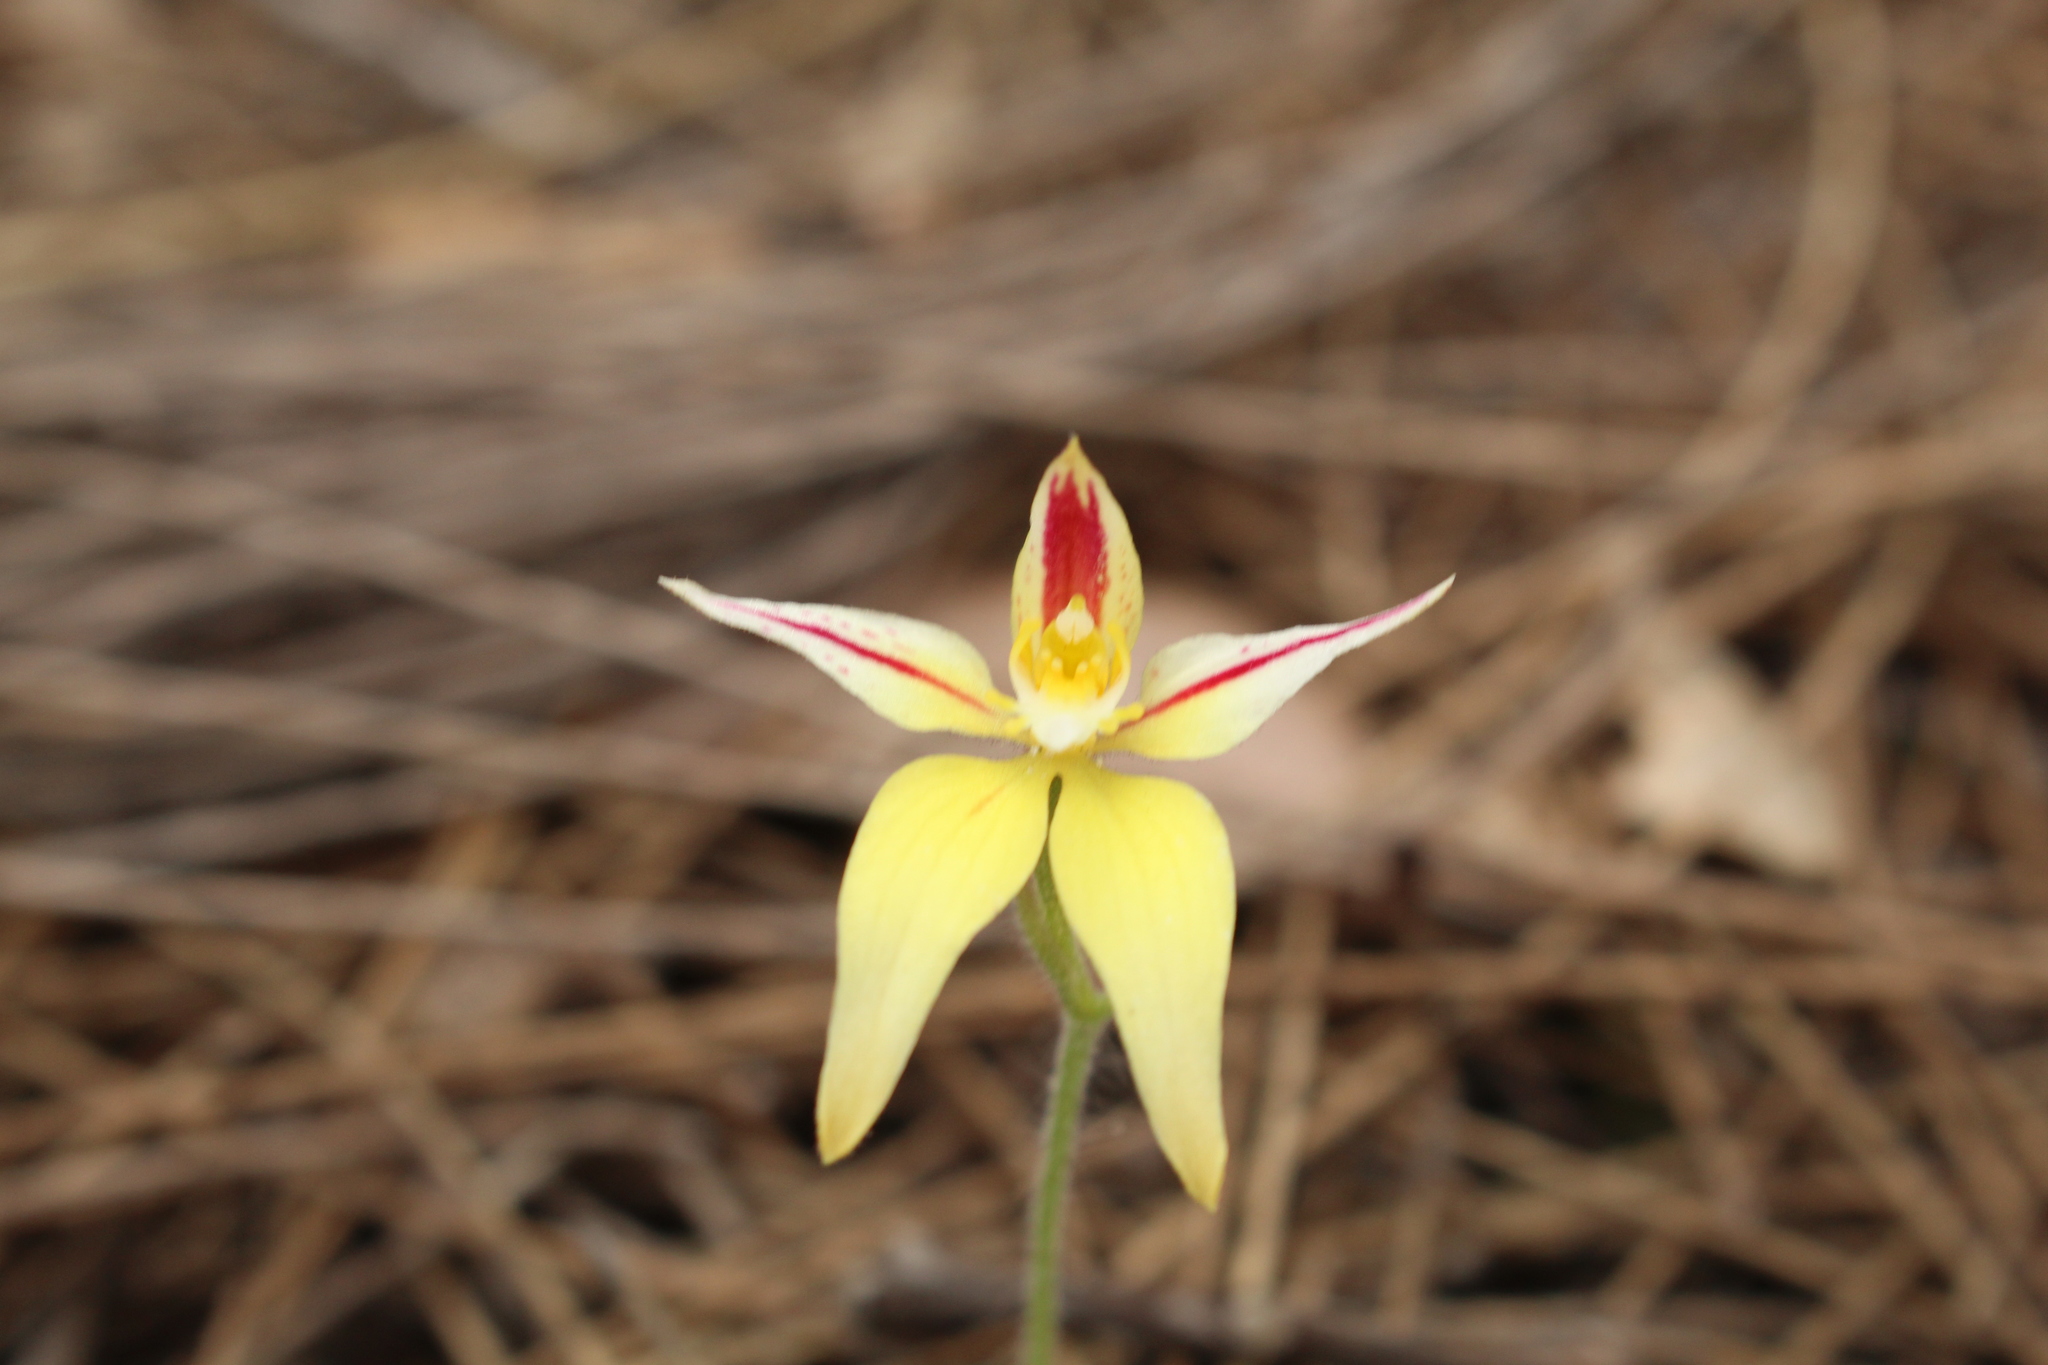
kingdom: Plantae
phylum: Tracheophyta
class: Liliopsida
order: Asparagales
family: Orchidaceae
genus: Caladenia
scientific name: Caladenia flava
